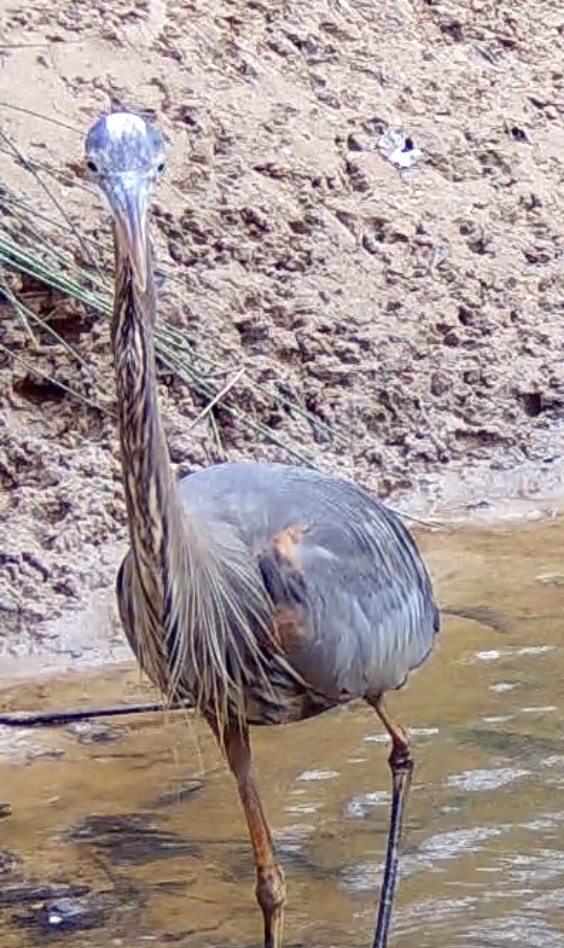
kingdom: Animalia
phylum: Chordata
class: Aves
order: Pelecaniformes
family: Ardeidae
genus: Ardea
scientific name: Ardea herodias
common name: Great blue heron
